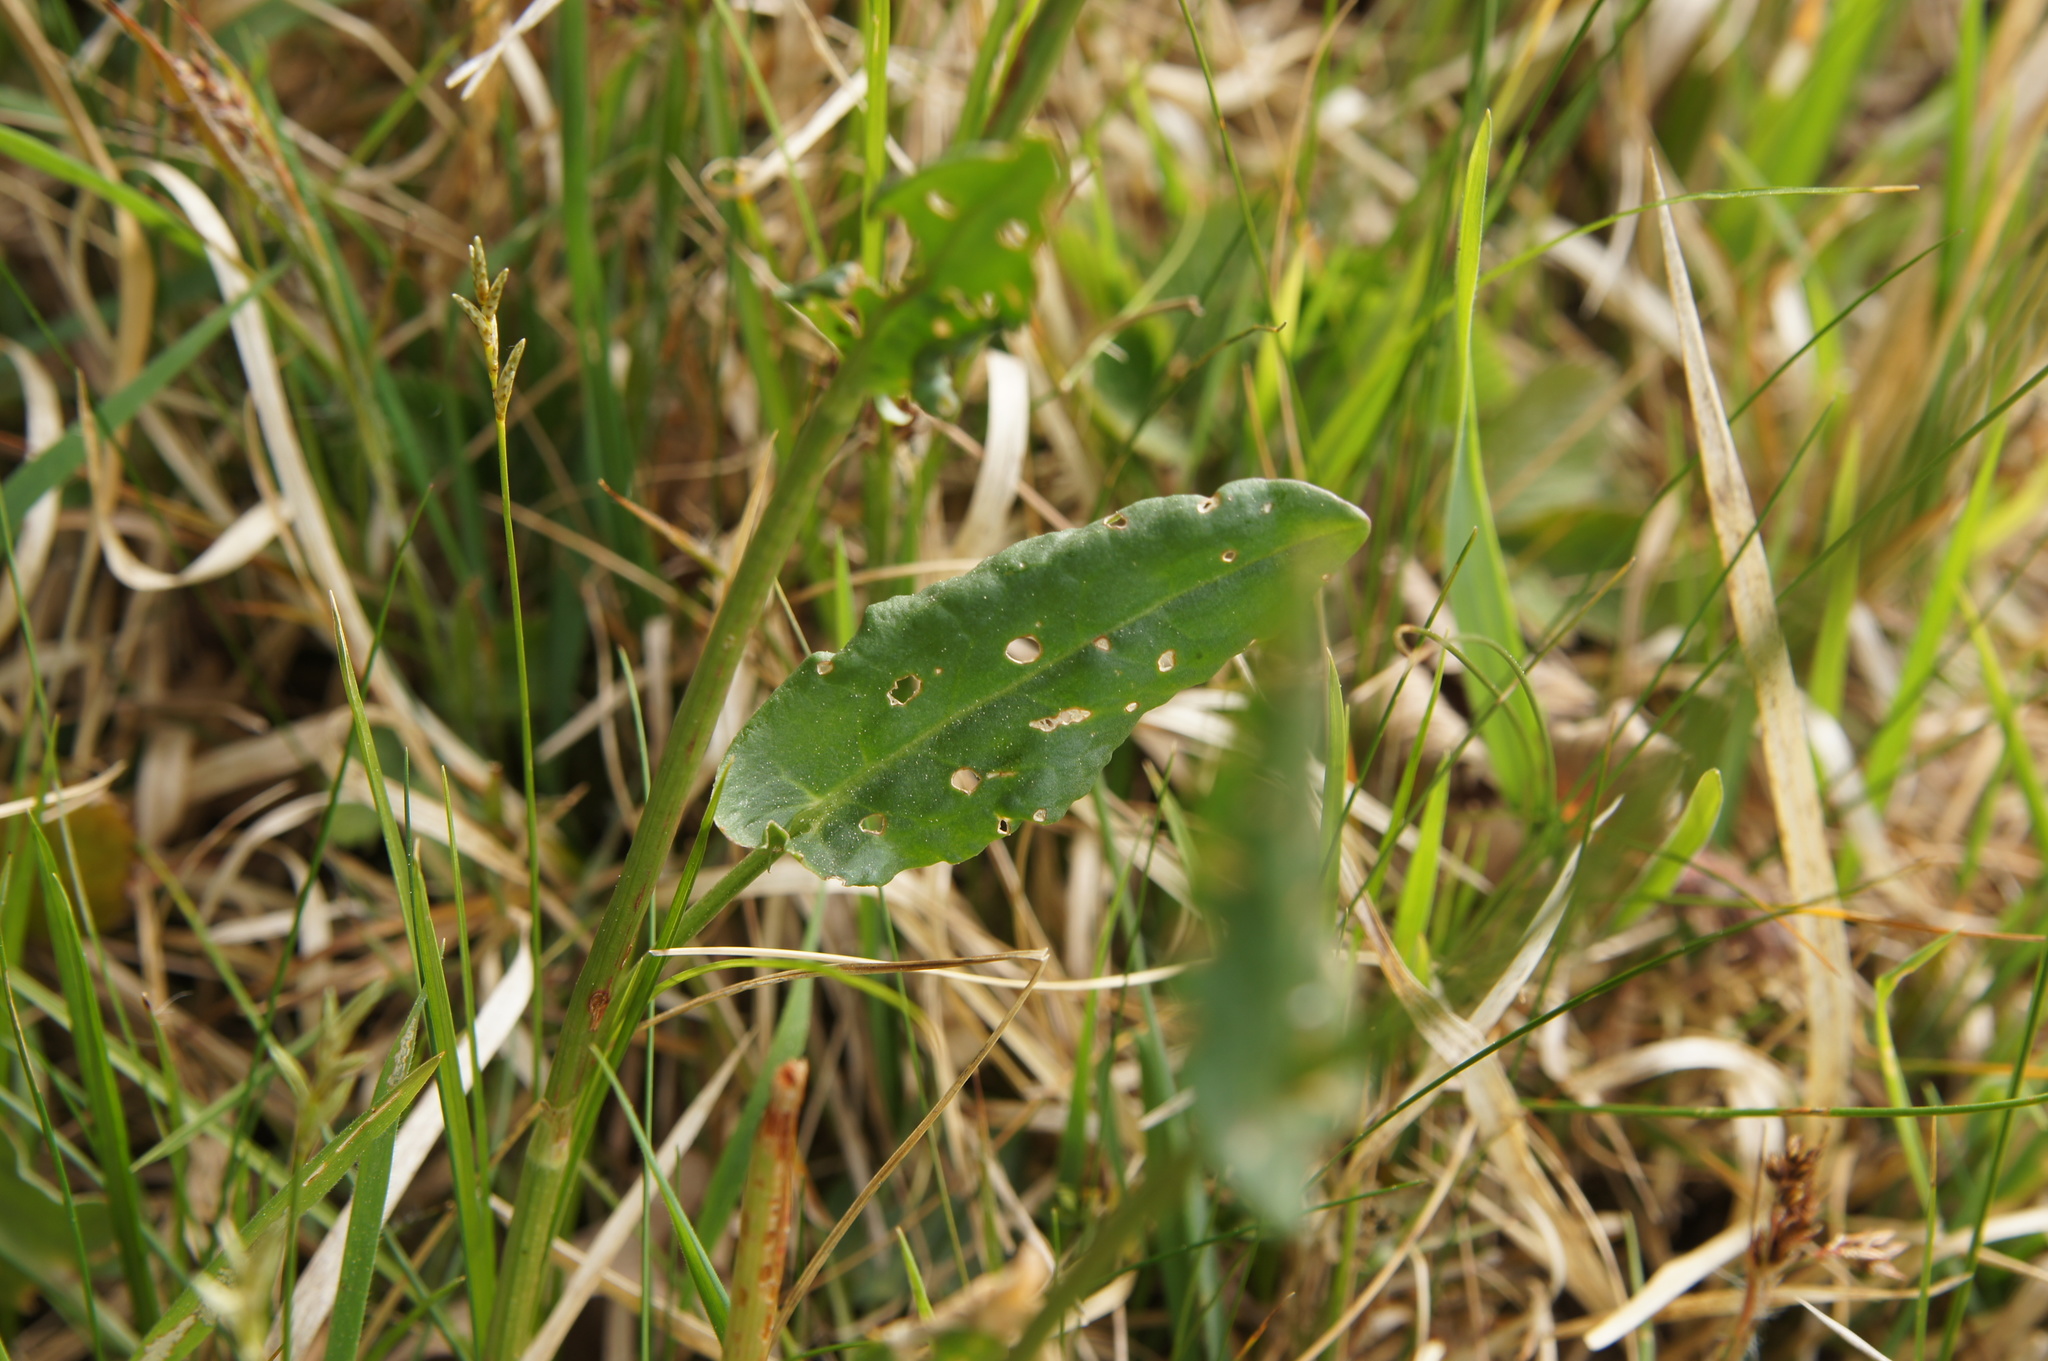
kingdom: Plantae
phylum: Tracheophyta
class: Magnoliopsida
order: Caryophyllales
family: Polygonaceae
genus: Rumex
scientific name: Rumex acetosa
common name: Garden sorrel
